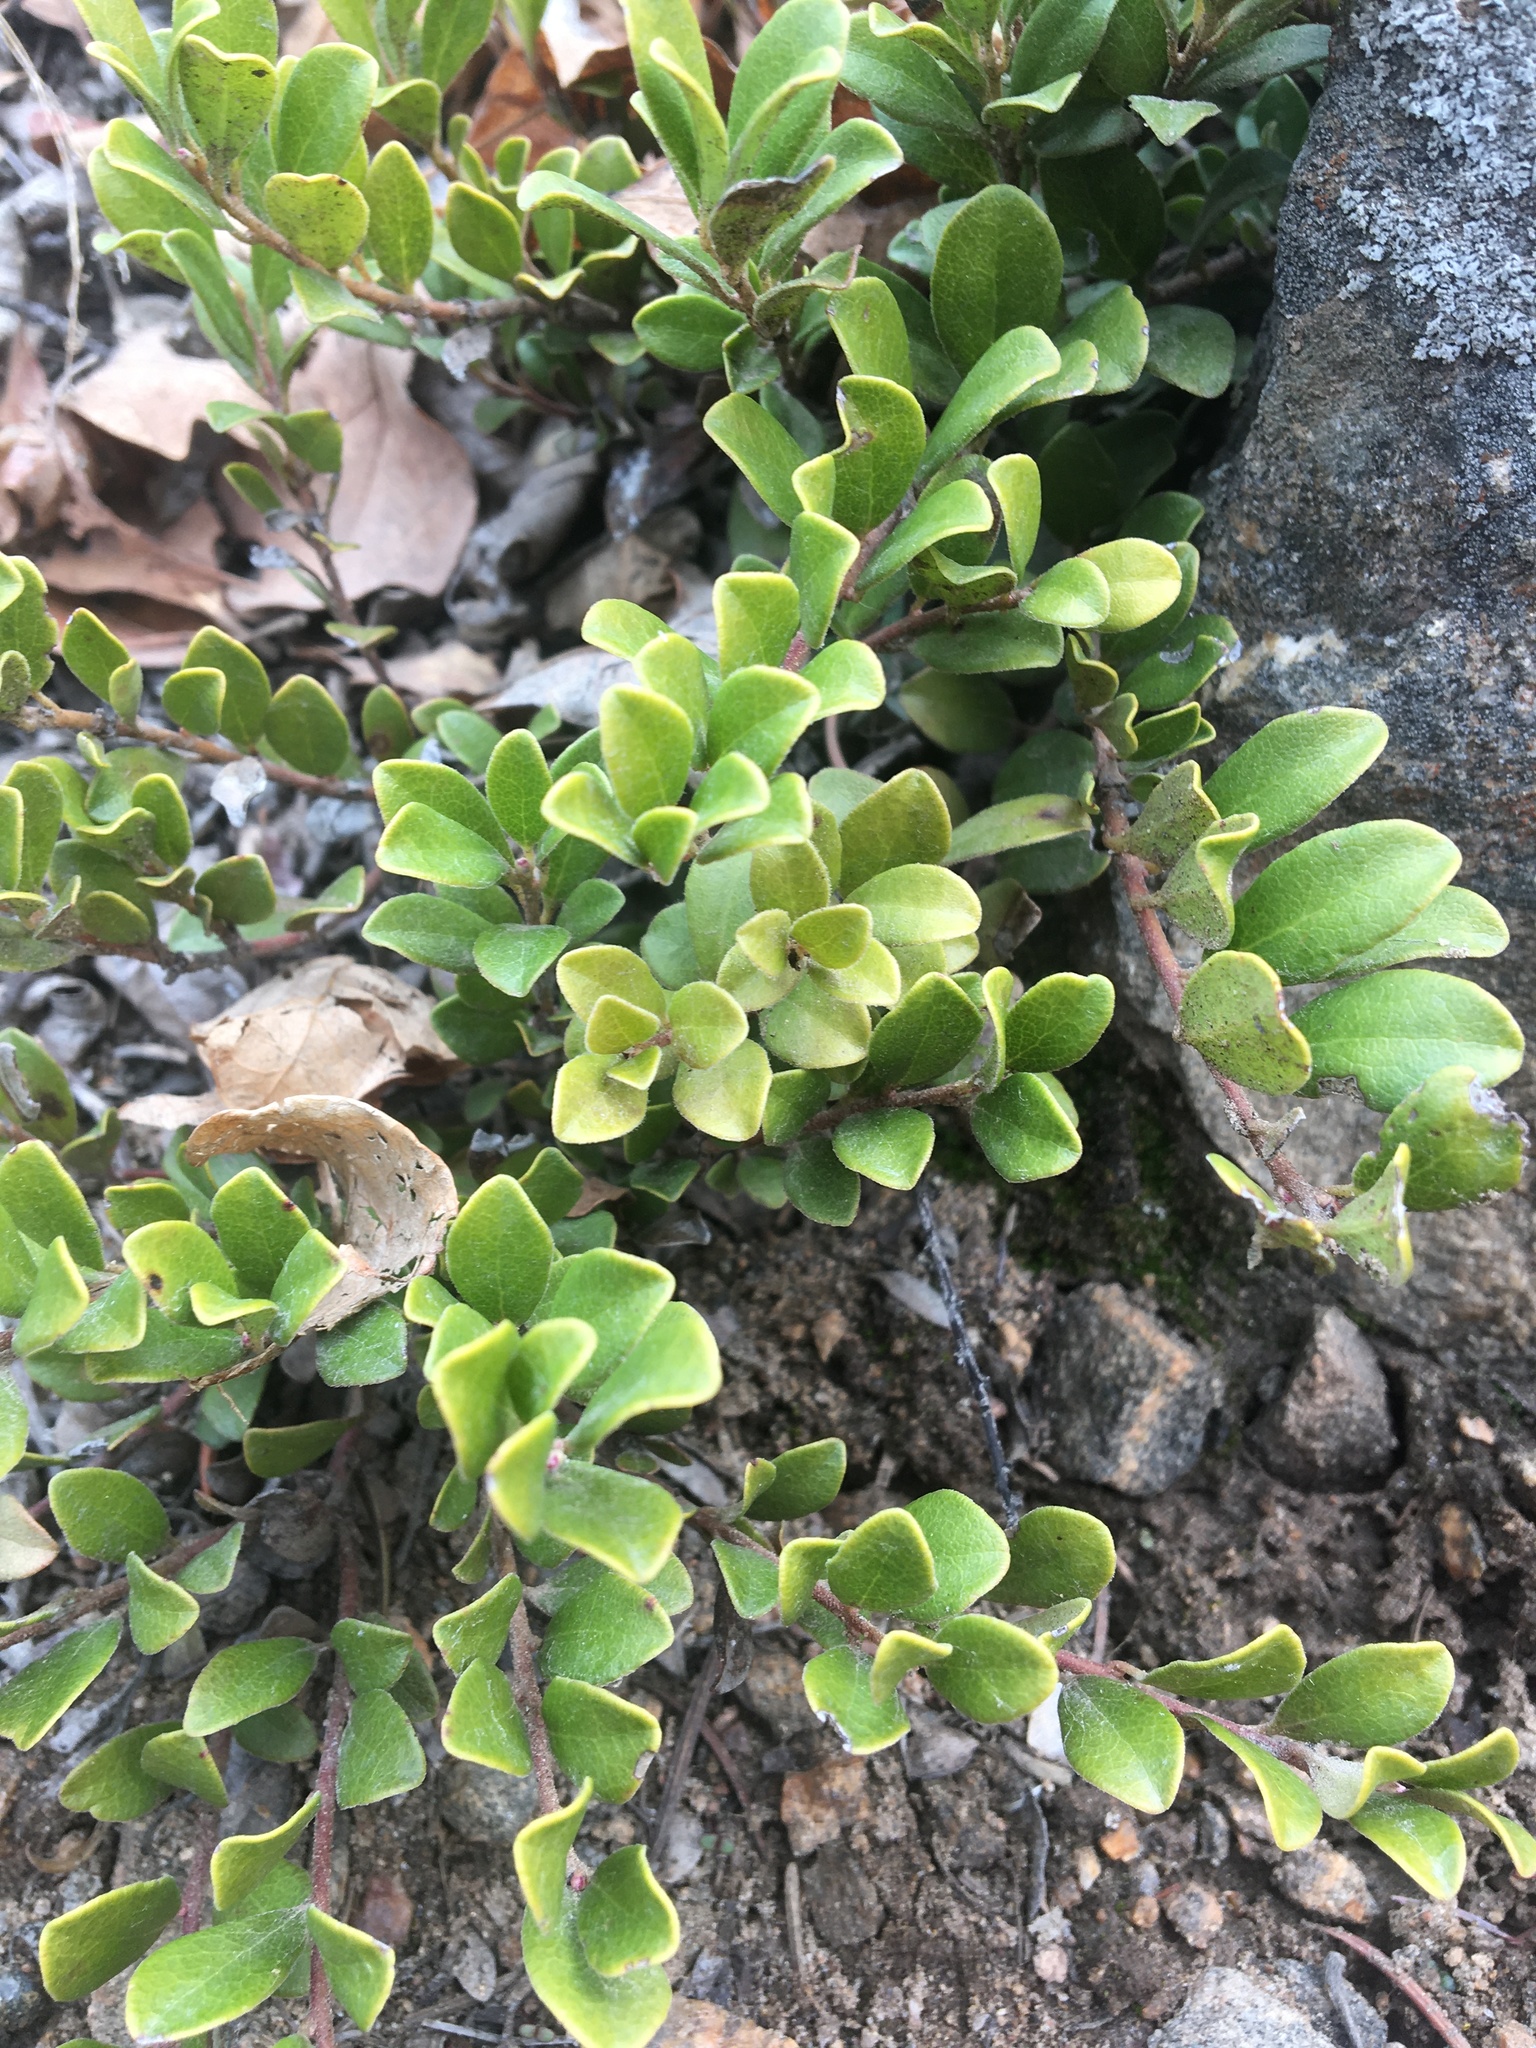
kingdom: Plantae
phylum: Tracheophyta
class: Magnoliopsida
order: Ericales
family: Ericaceae
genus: Arctostaphylos
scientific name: Arctostaphylos uva-ursi
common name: Bearberry
